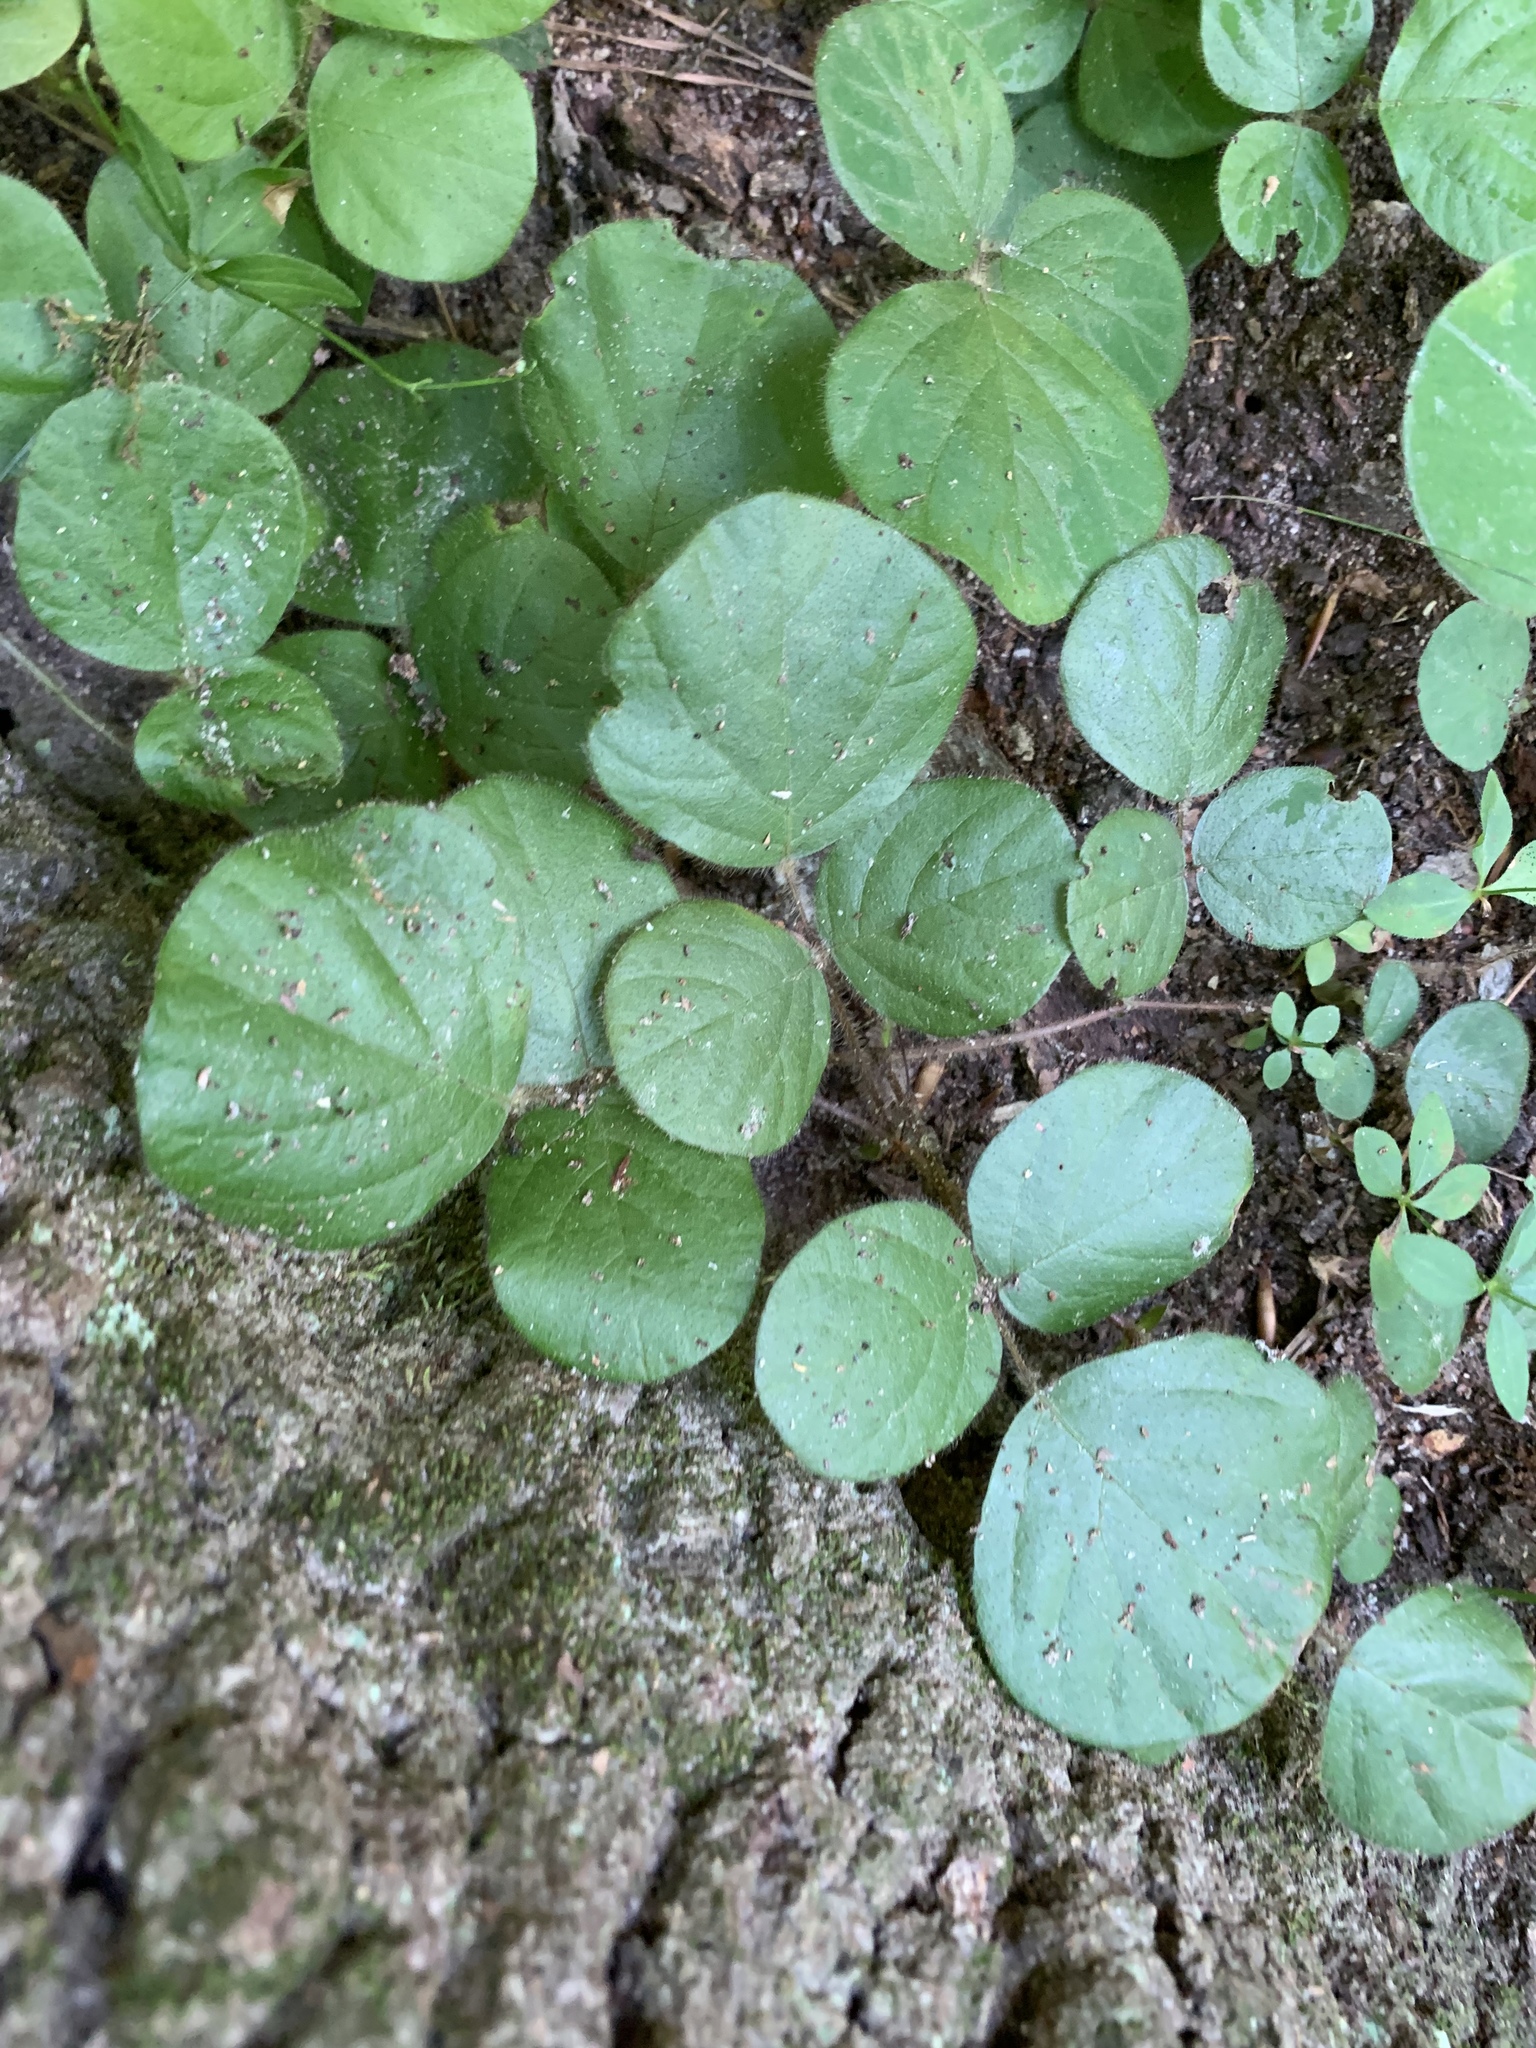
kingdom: Plantae
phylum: Tracheophyta
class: Magnoliopsida
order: Fabales
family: Fabaceae
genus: Desmodium
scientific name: Desmodium rotundifolium
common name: Dollarleaf
